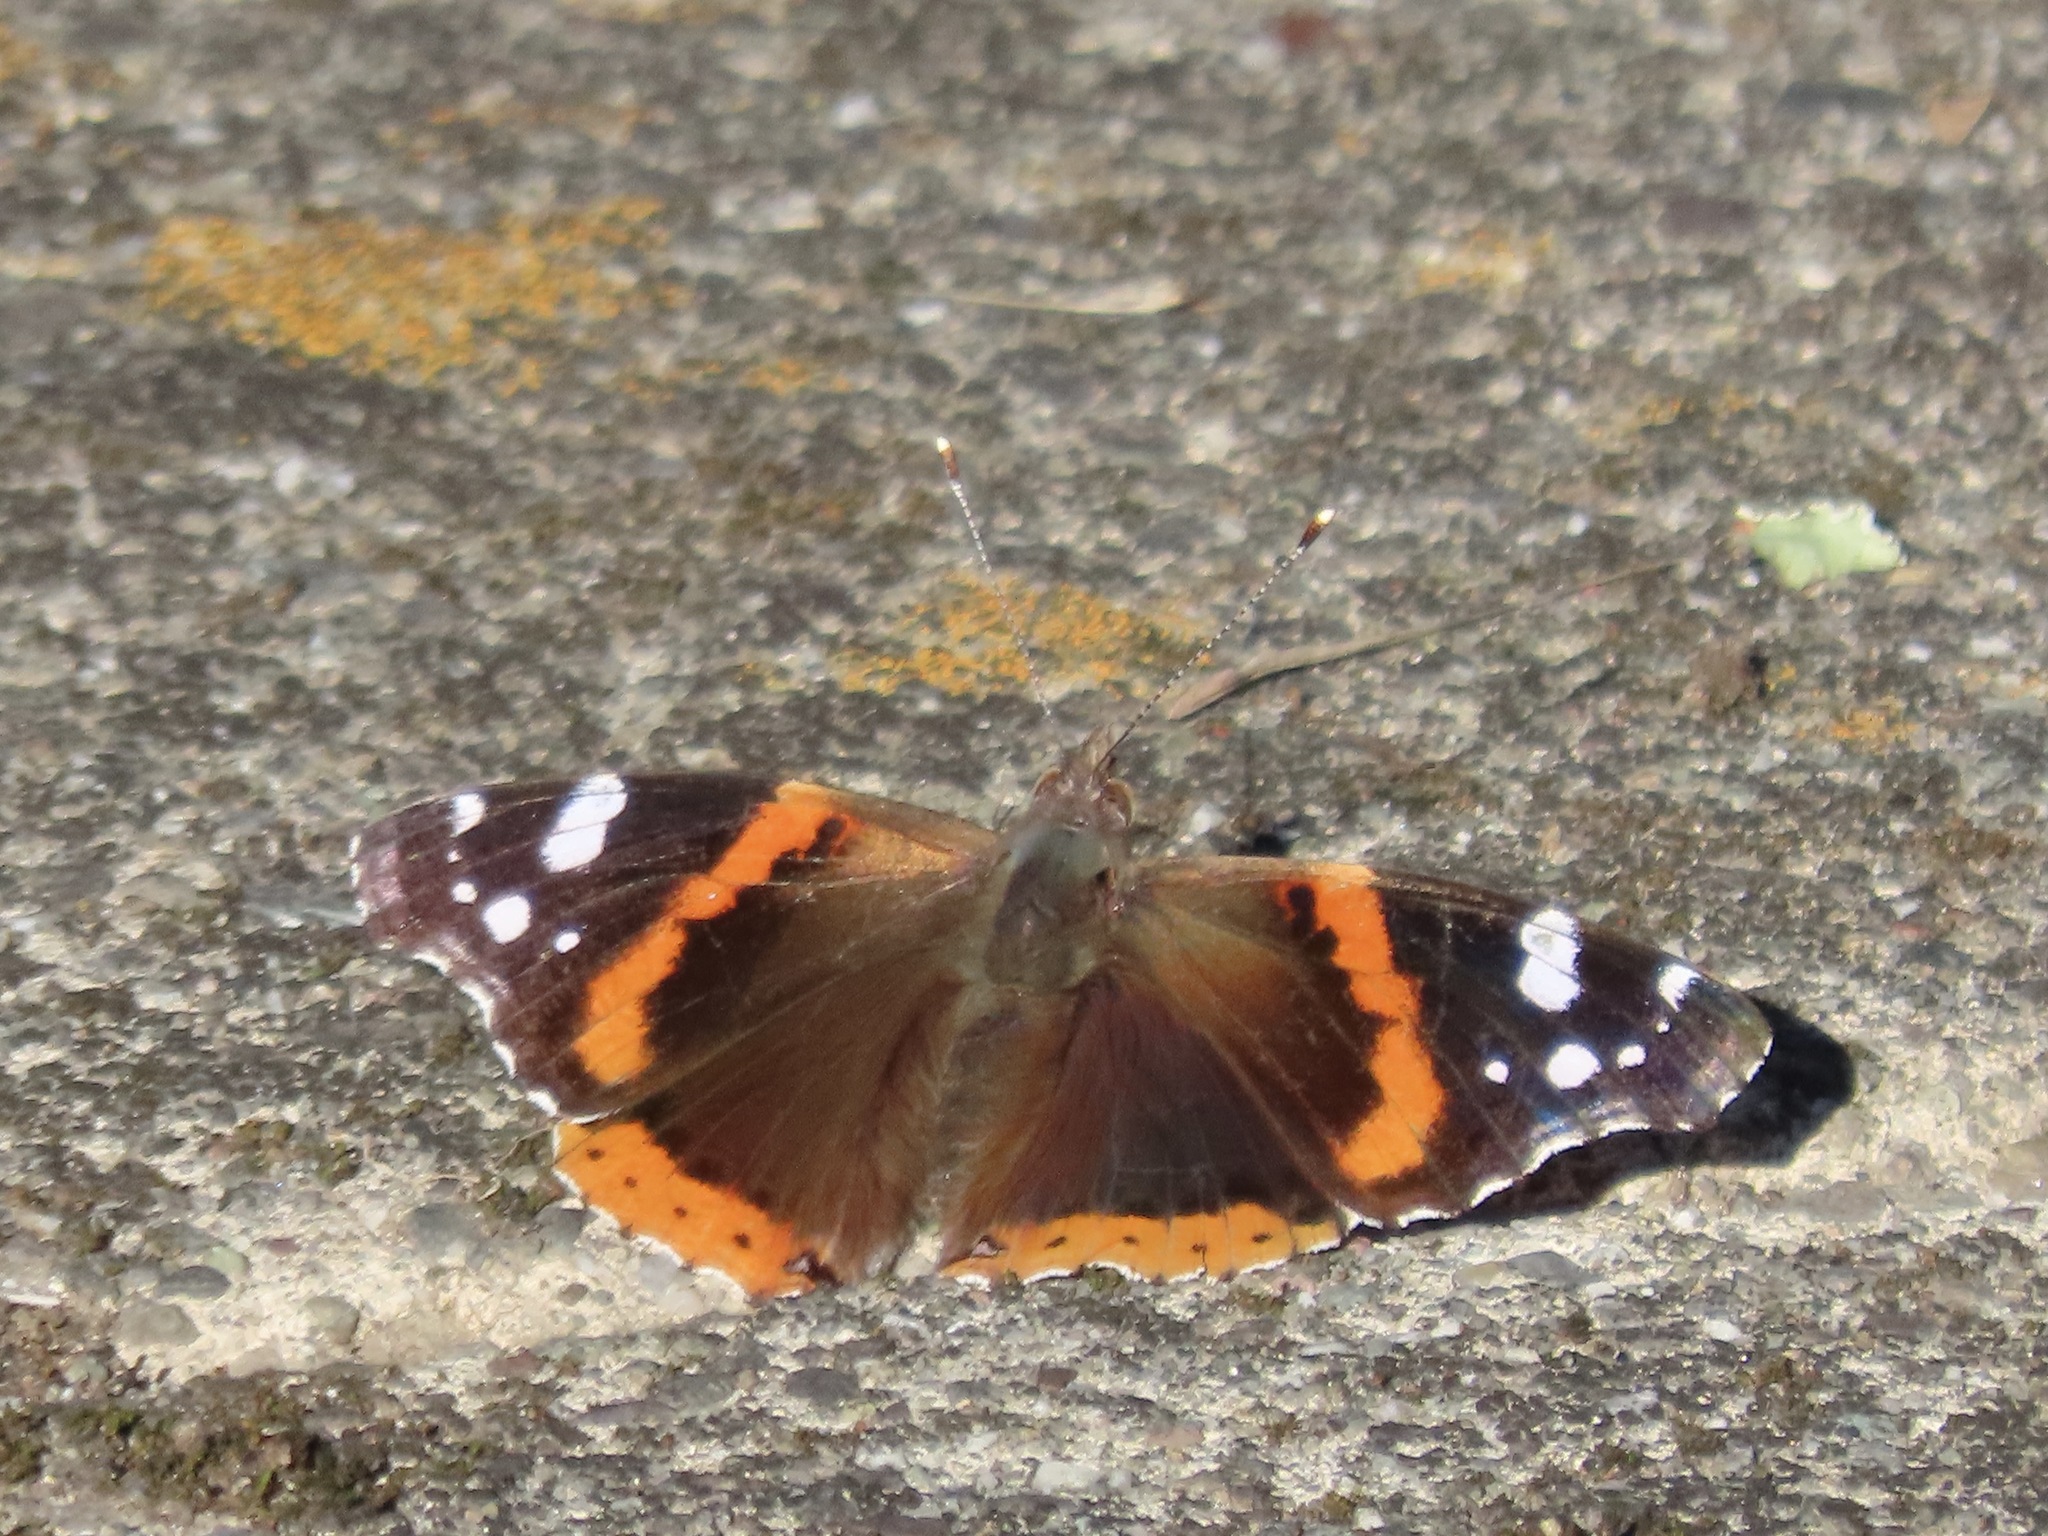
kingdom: Animalia
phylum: Arthropoda
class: Insecta
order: Lepidoptera
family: Nymphalidae
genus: Vanessa
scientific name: Vanessa atalanta
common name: Red admiral
